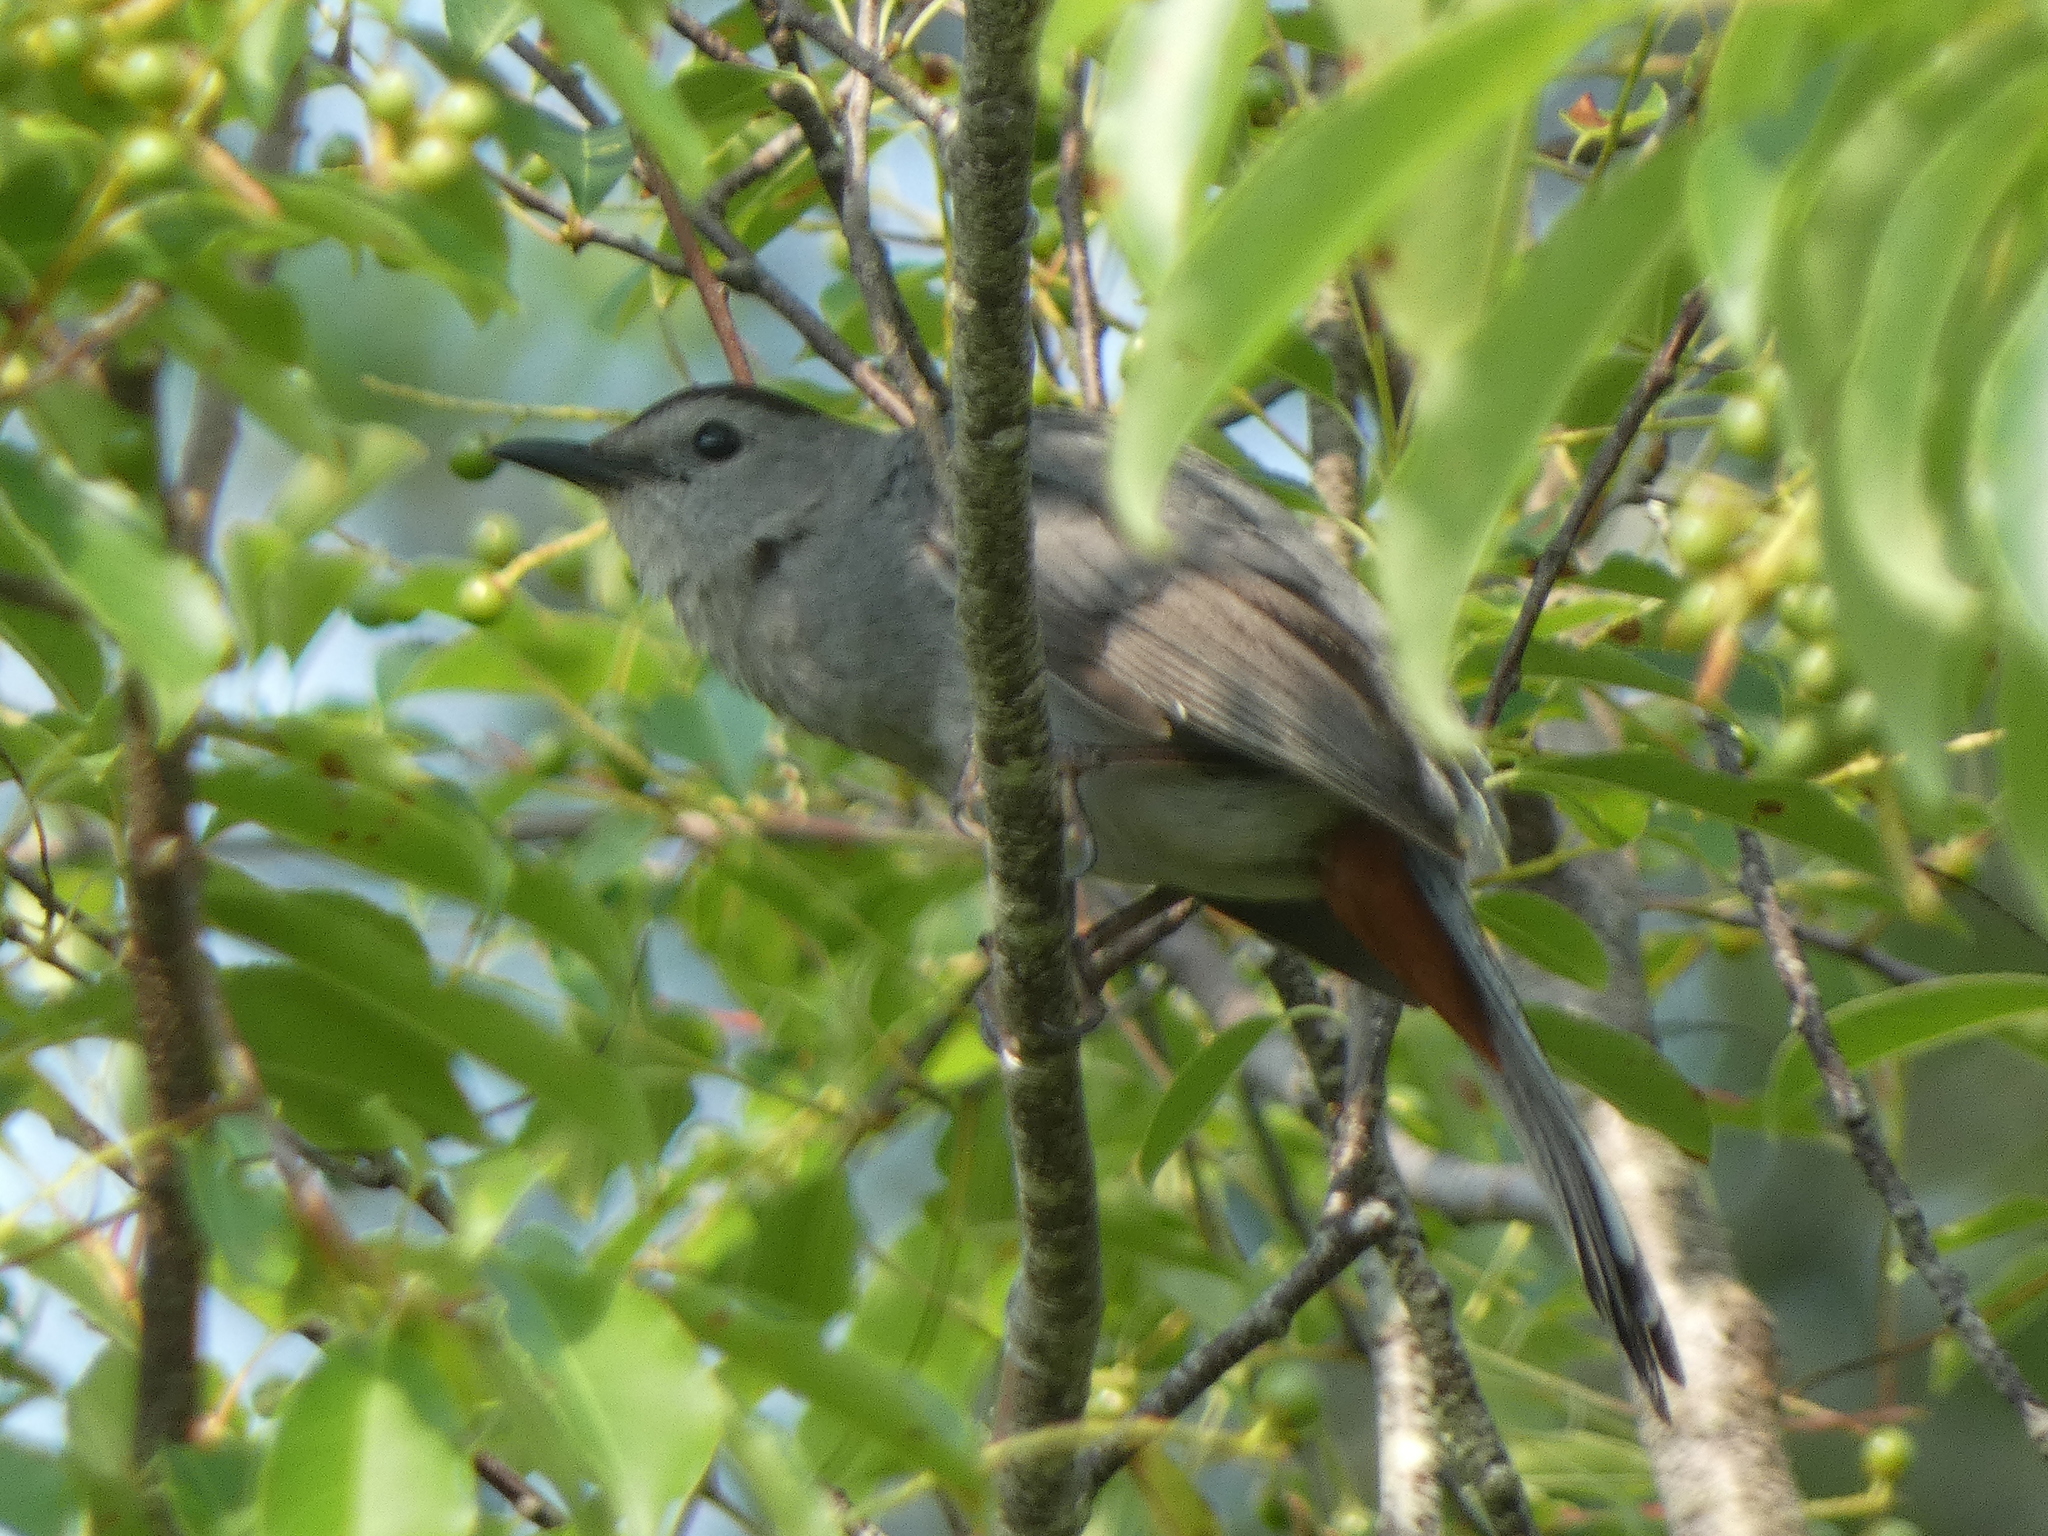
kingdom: Animalia
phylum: Chordata
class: Aves
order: Passeriformes
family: Mimidae
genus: Dumetella
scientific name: Dumetella carolinensis
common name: Gray catbird
